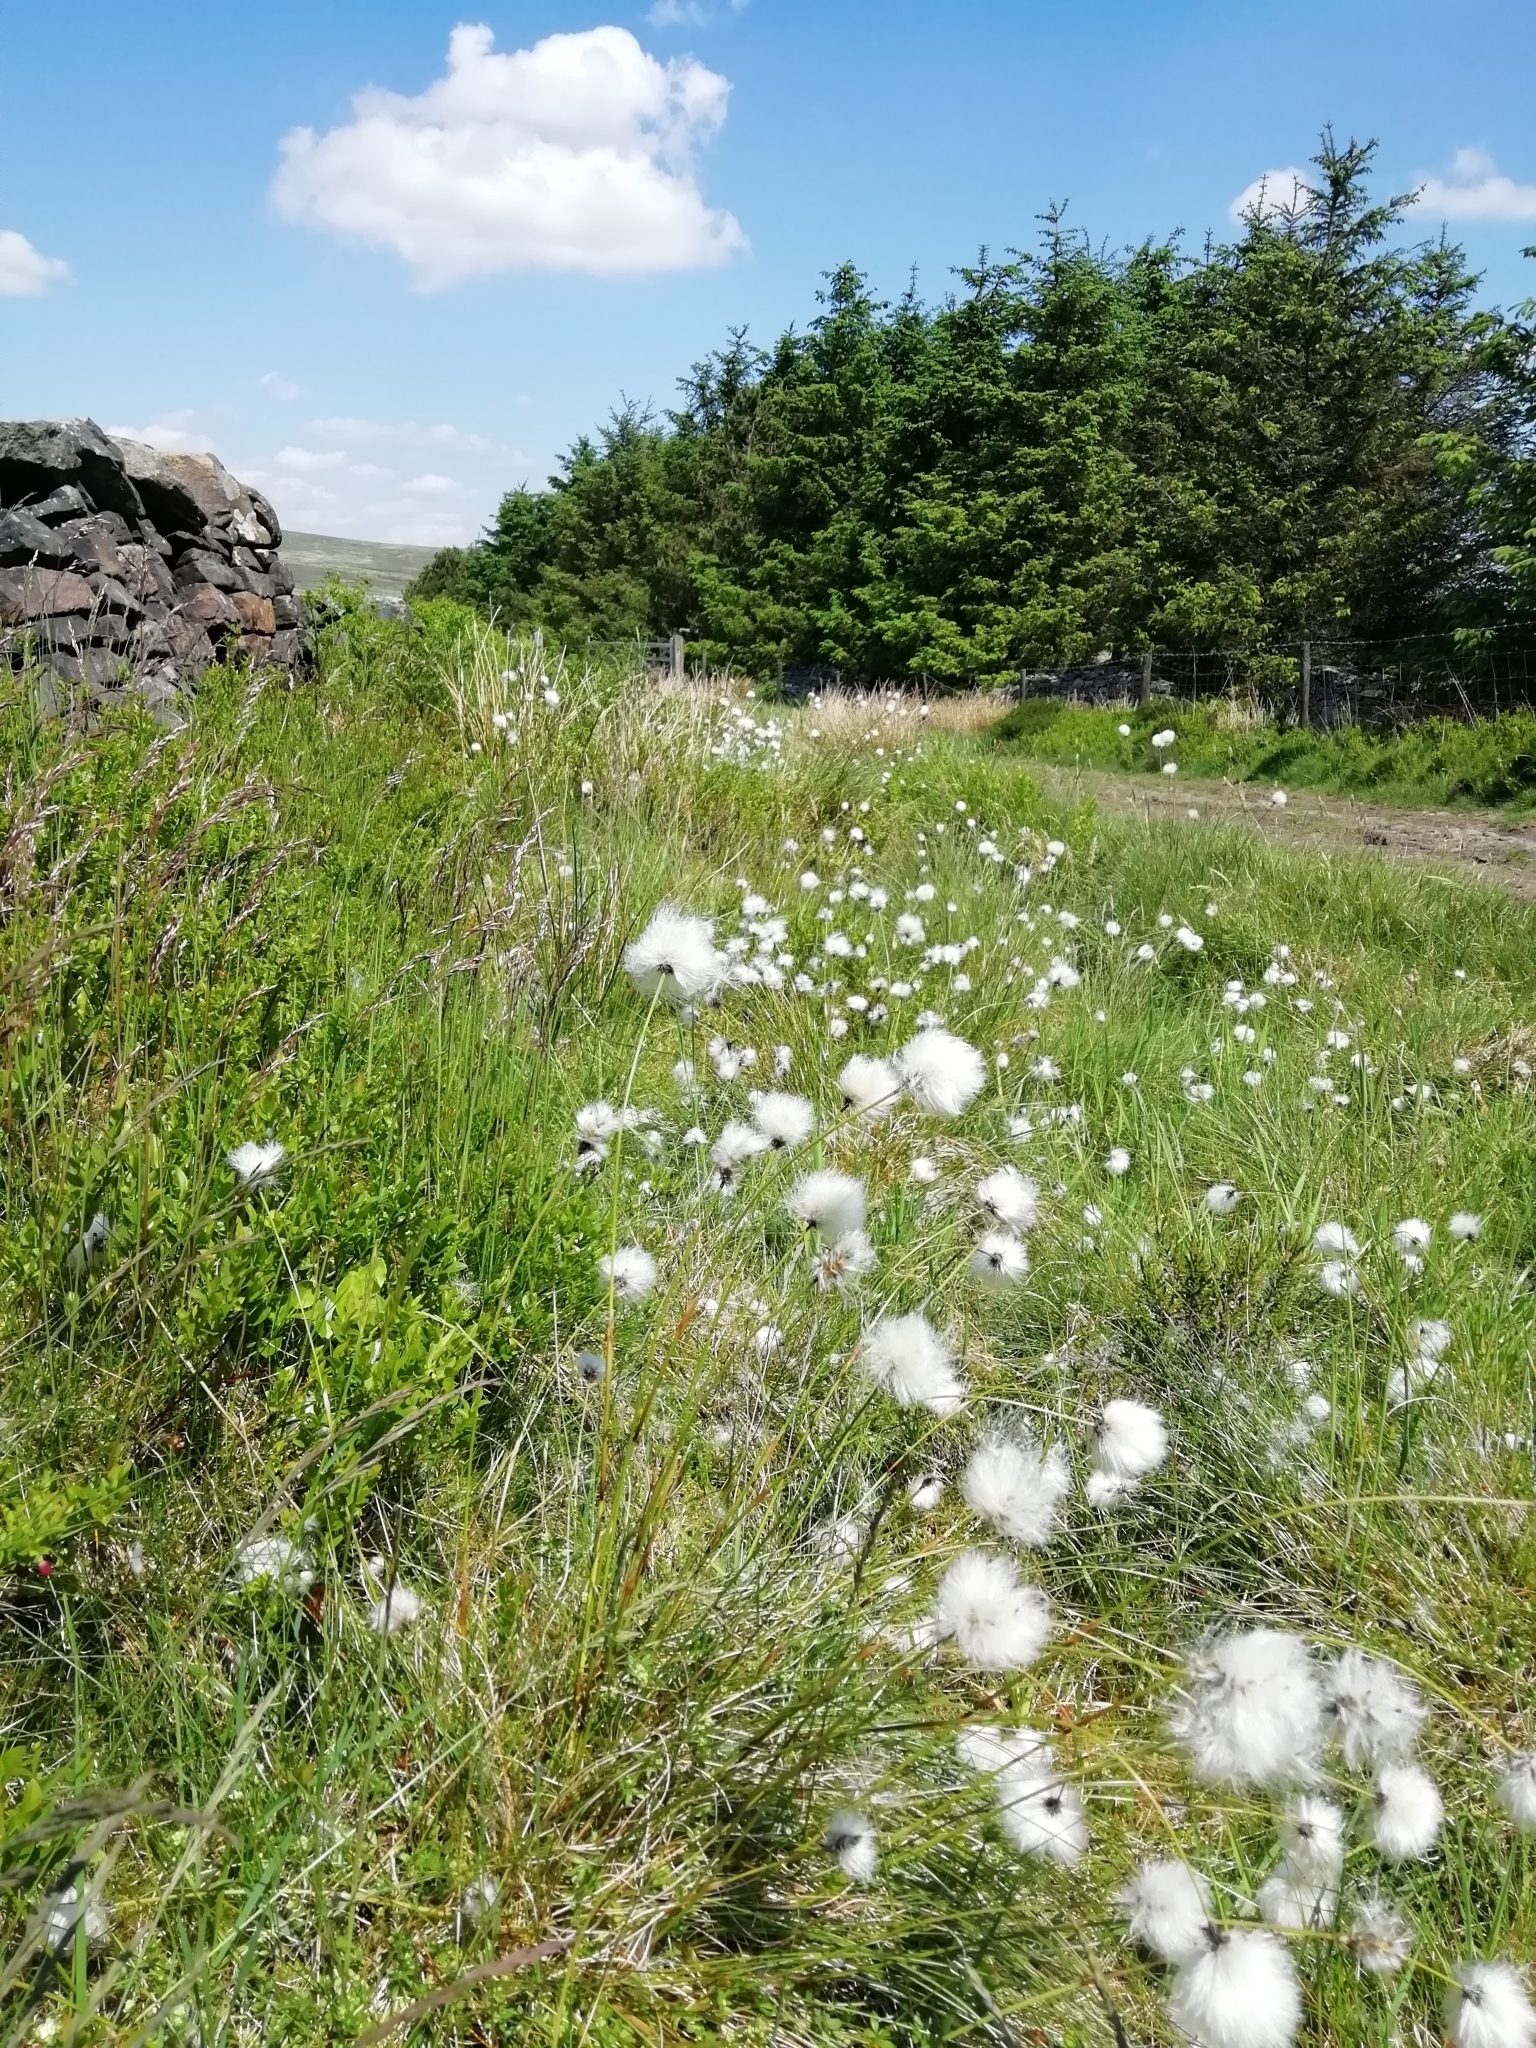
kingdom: Plantae
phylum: Tracheophyta
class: Liliopsida
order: Poales
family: Cyperaceae
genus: Eriophorum
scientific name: Eriophorum vaginatum
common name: Hare's-tail cottongrass
